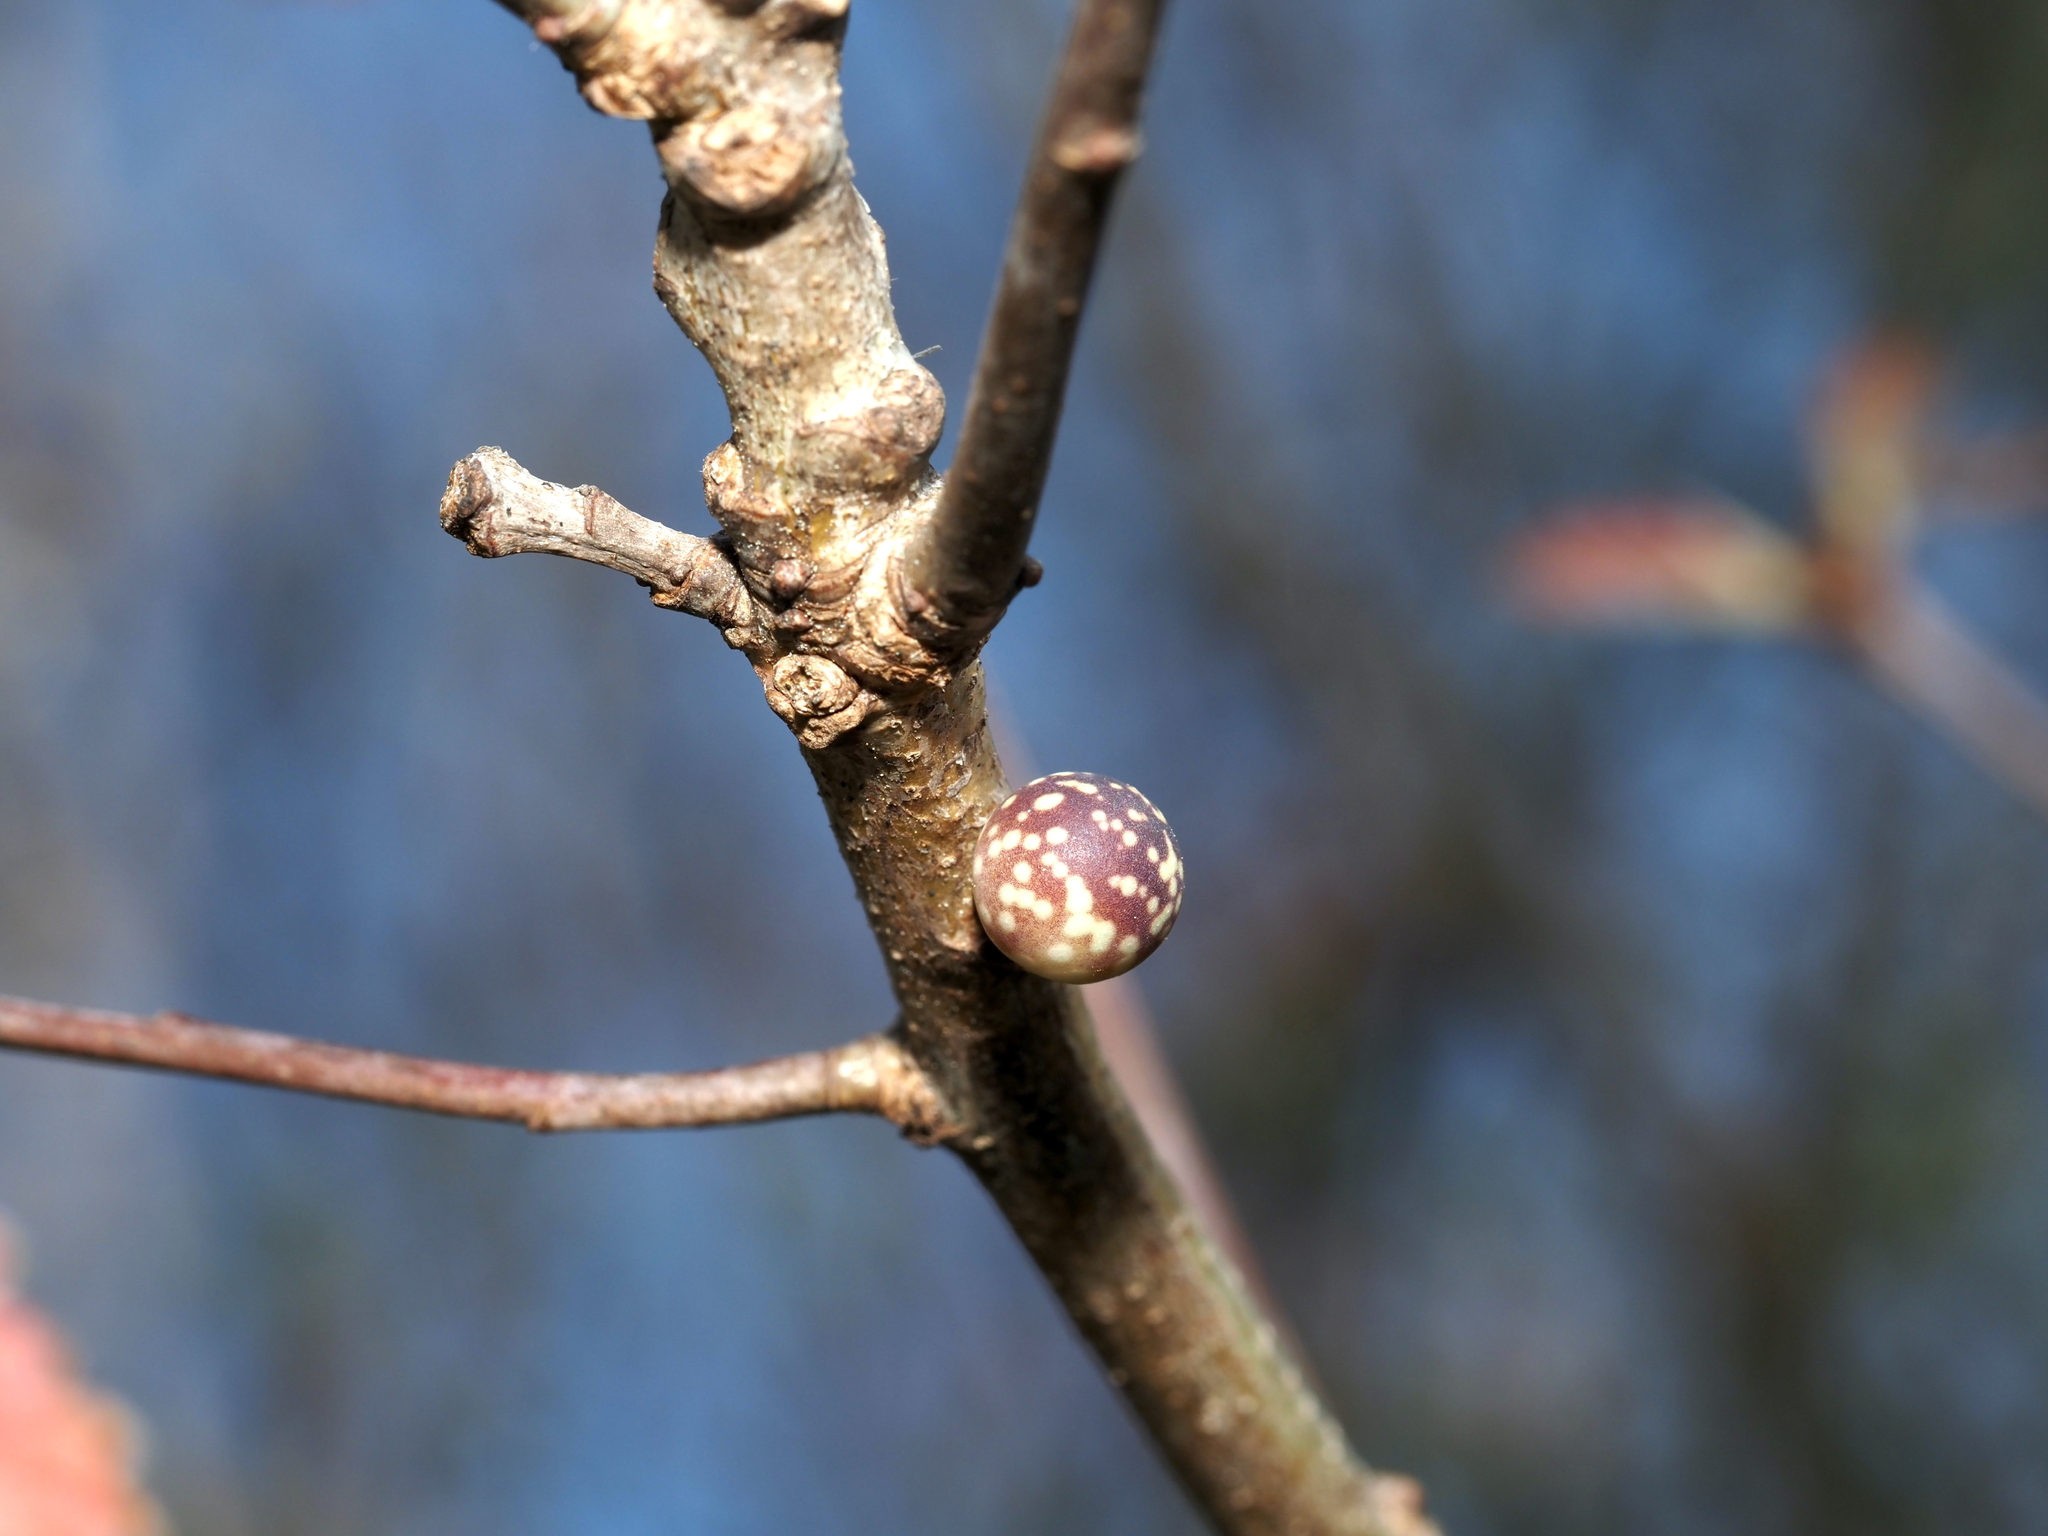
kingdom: Animalia
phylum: Arthropoda
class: Insecta
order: Hymenoptera
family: Cynipidae
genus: Andricus
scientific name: Andricus
